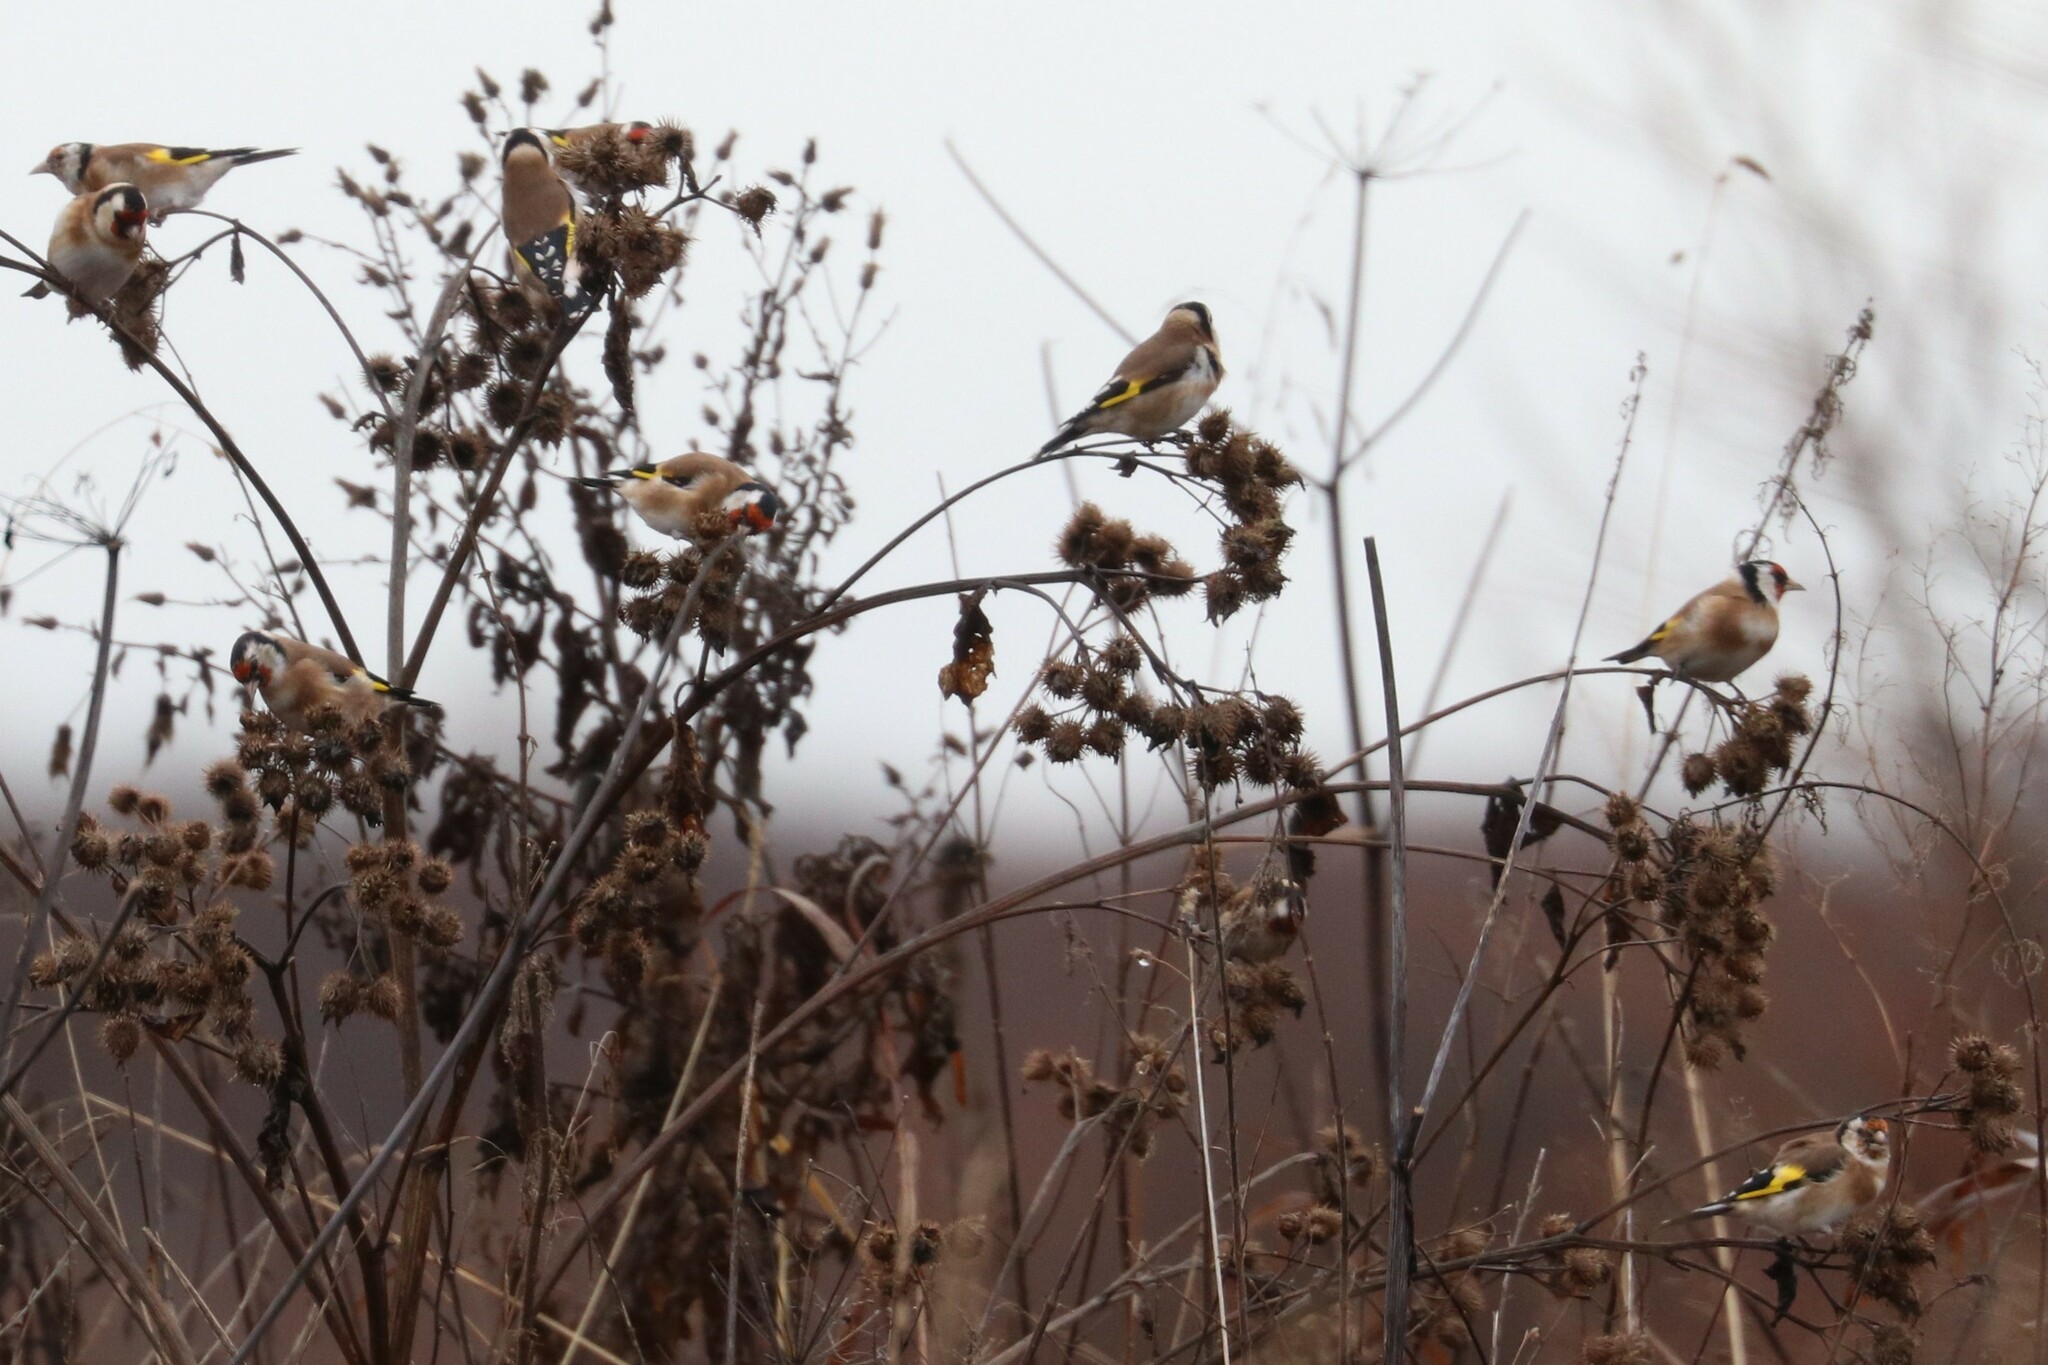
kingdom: Animalia
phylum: Chordata
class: Aves
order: Passeriformes
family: Fringillidae
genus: Carduelis
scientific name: Carduelis carduelis
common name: European goldfinch
